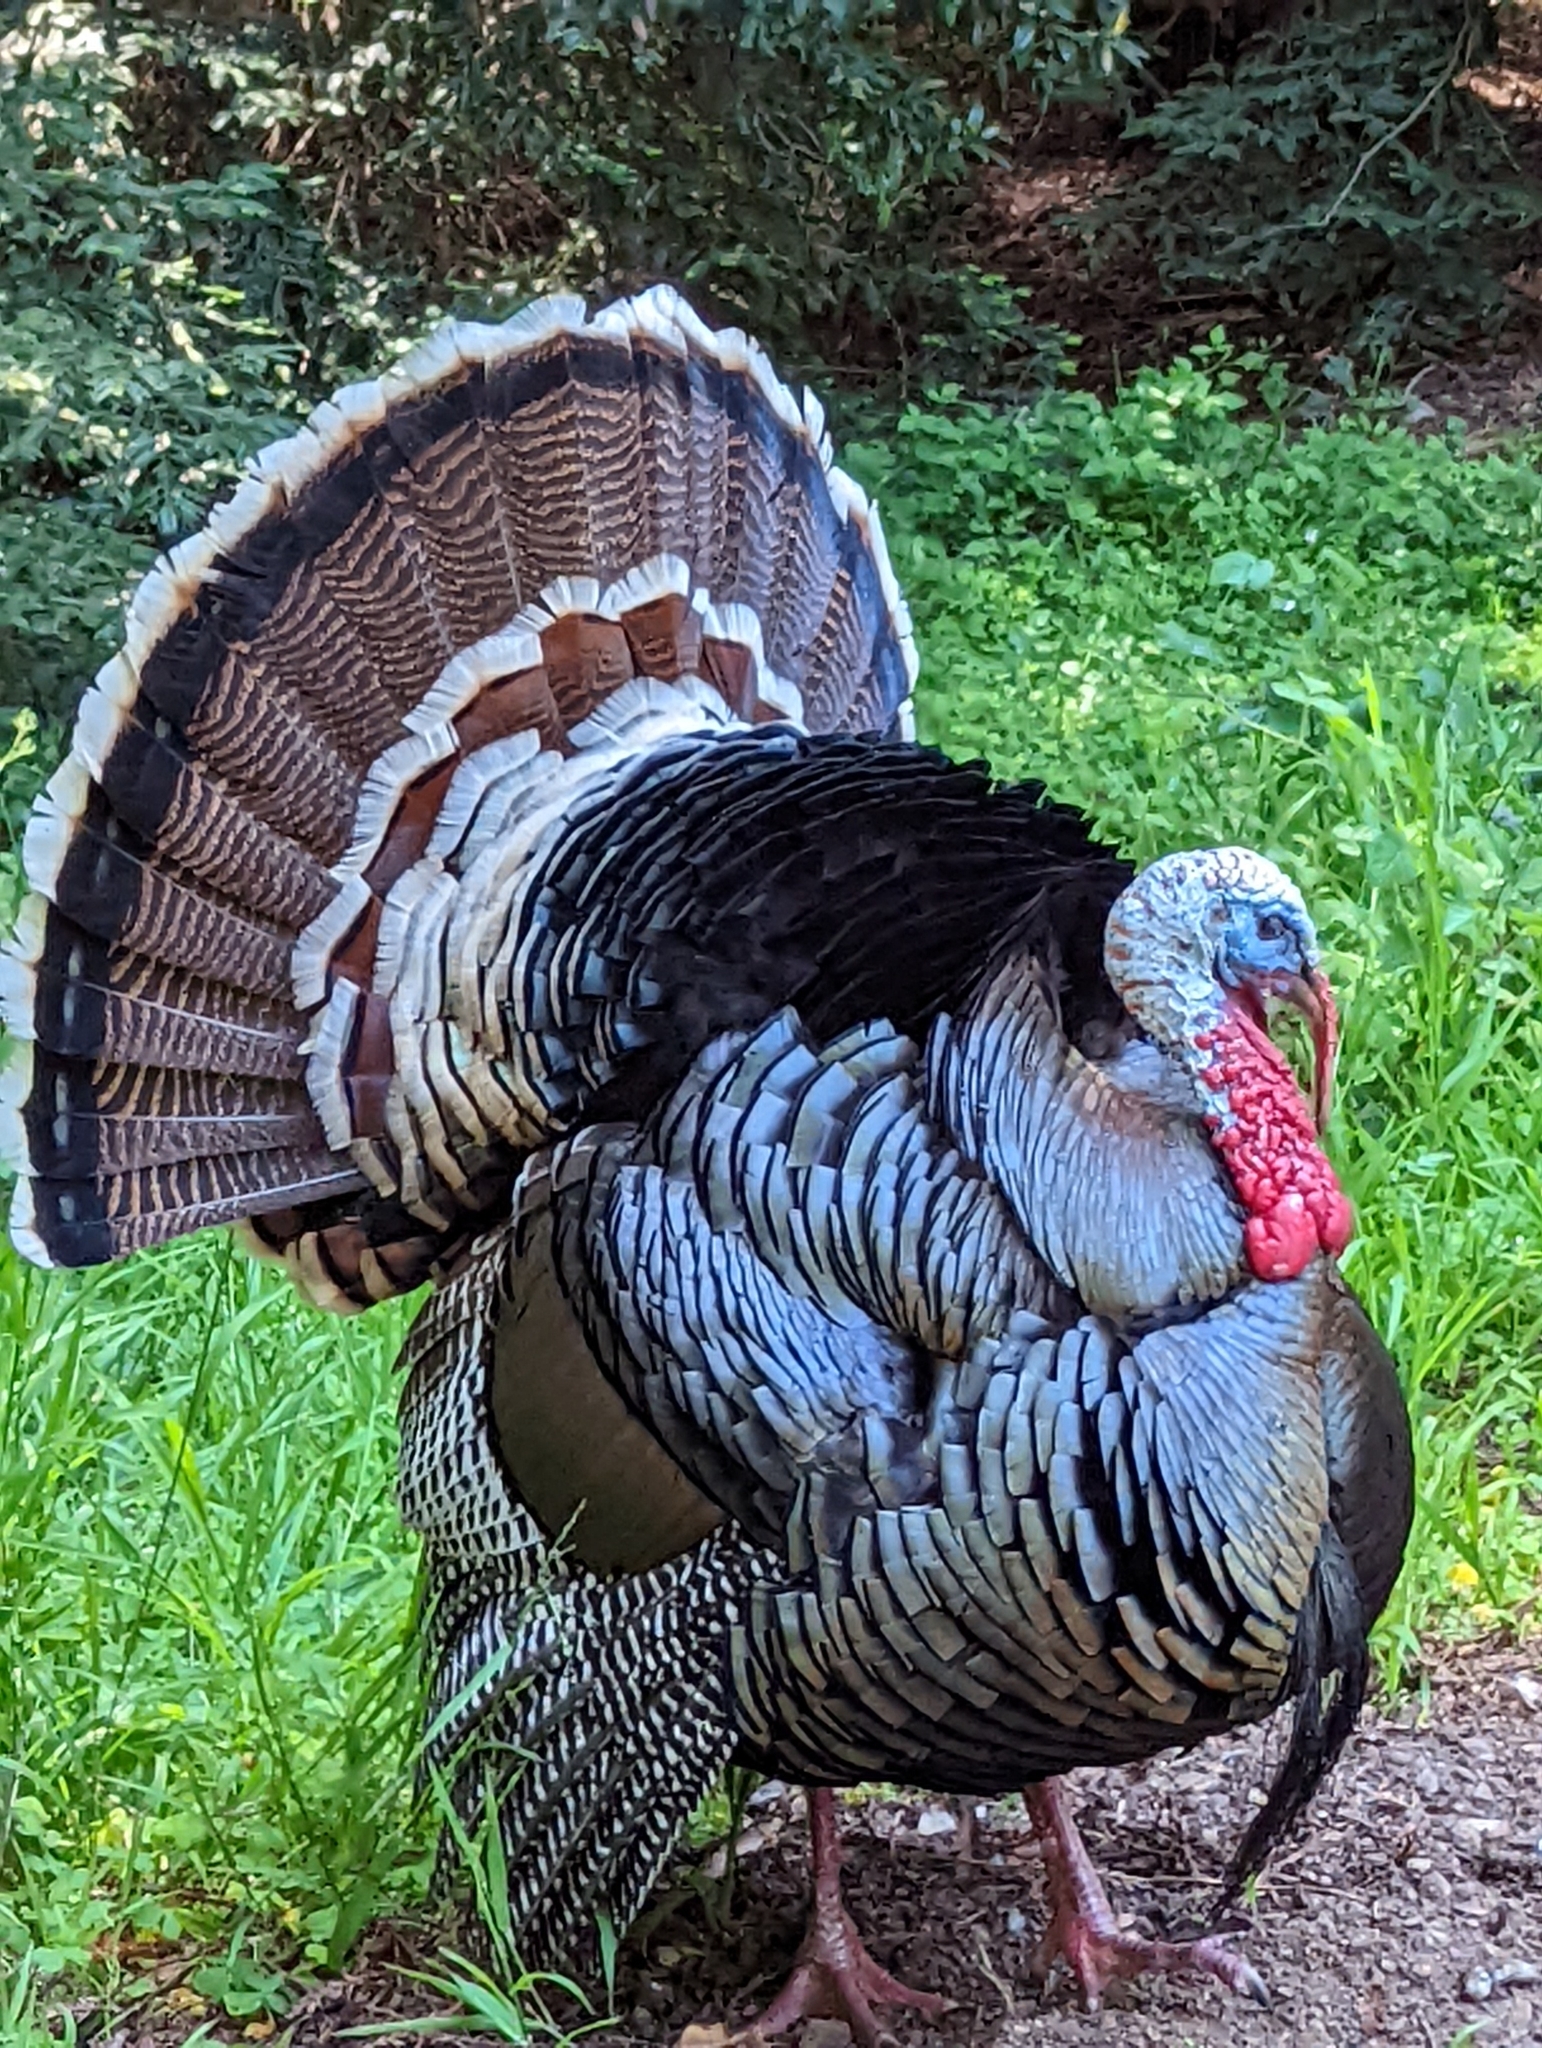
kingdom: Animalia
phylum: Chordata
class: Aves
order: Galliformes
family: Phasianidae
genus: Meleagris
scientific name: Meleagris gallopavo
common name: Wild turkey
